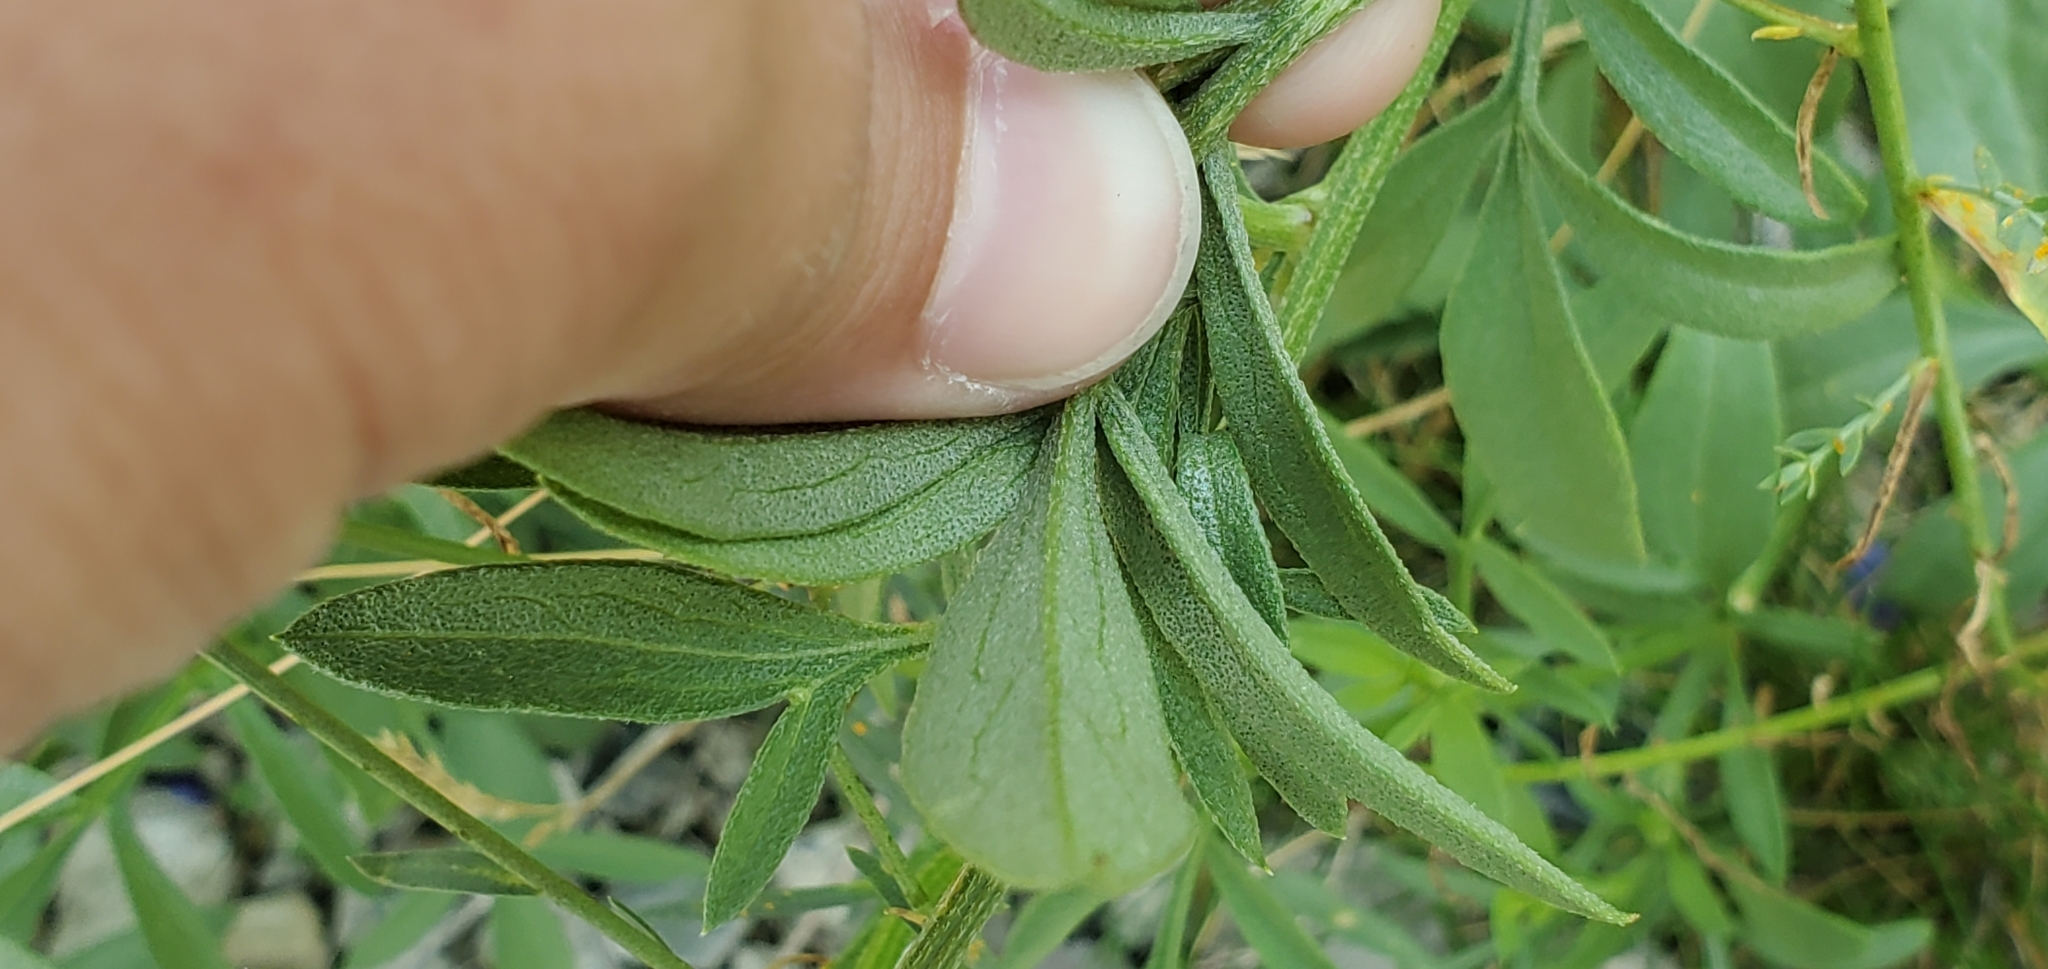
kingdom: Plantae
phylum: Tracheophyta
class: Magnoliopsida
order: Asterales
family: Asteraceae
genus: Ratibida
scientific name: Ratibida columnifera
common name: Prairie coneflower
